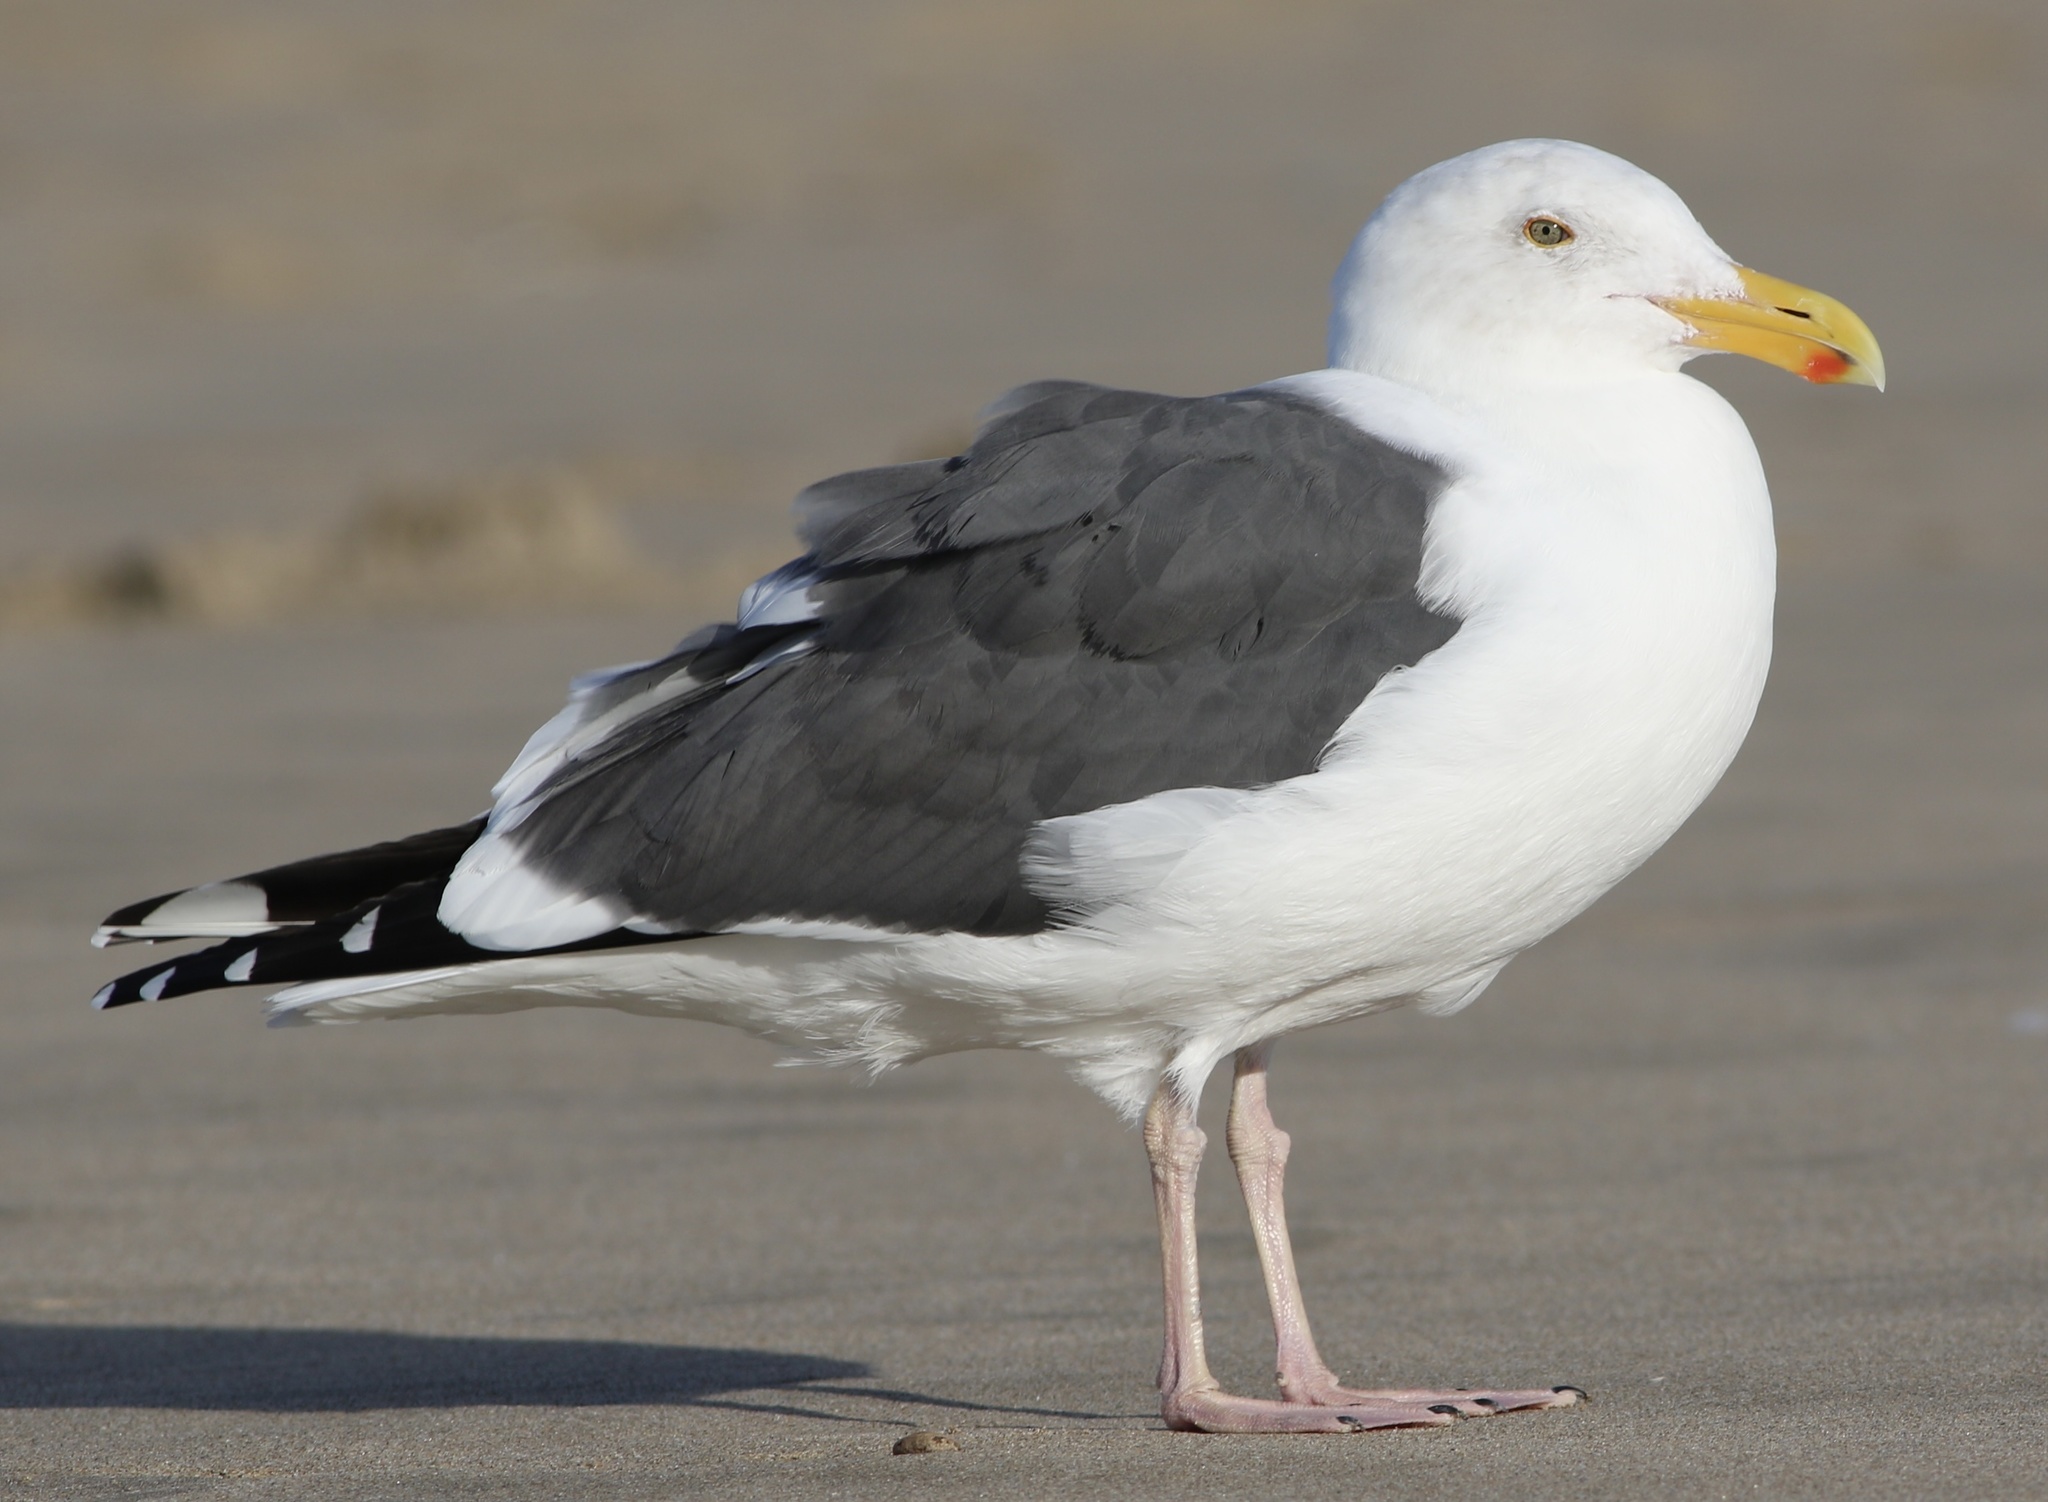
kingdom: Animalia
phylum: Chordata
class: Aves
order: Charadriiformes
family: Laridae
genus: Larus
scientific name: Larus occidentalis
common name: Western gull
